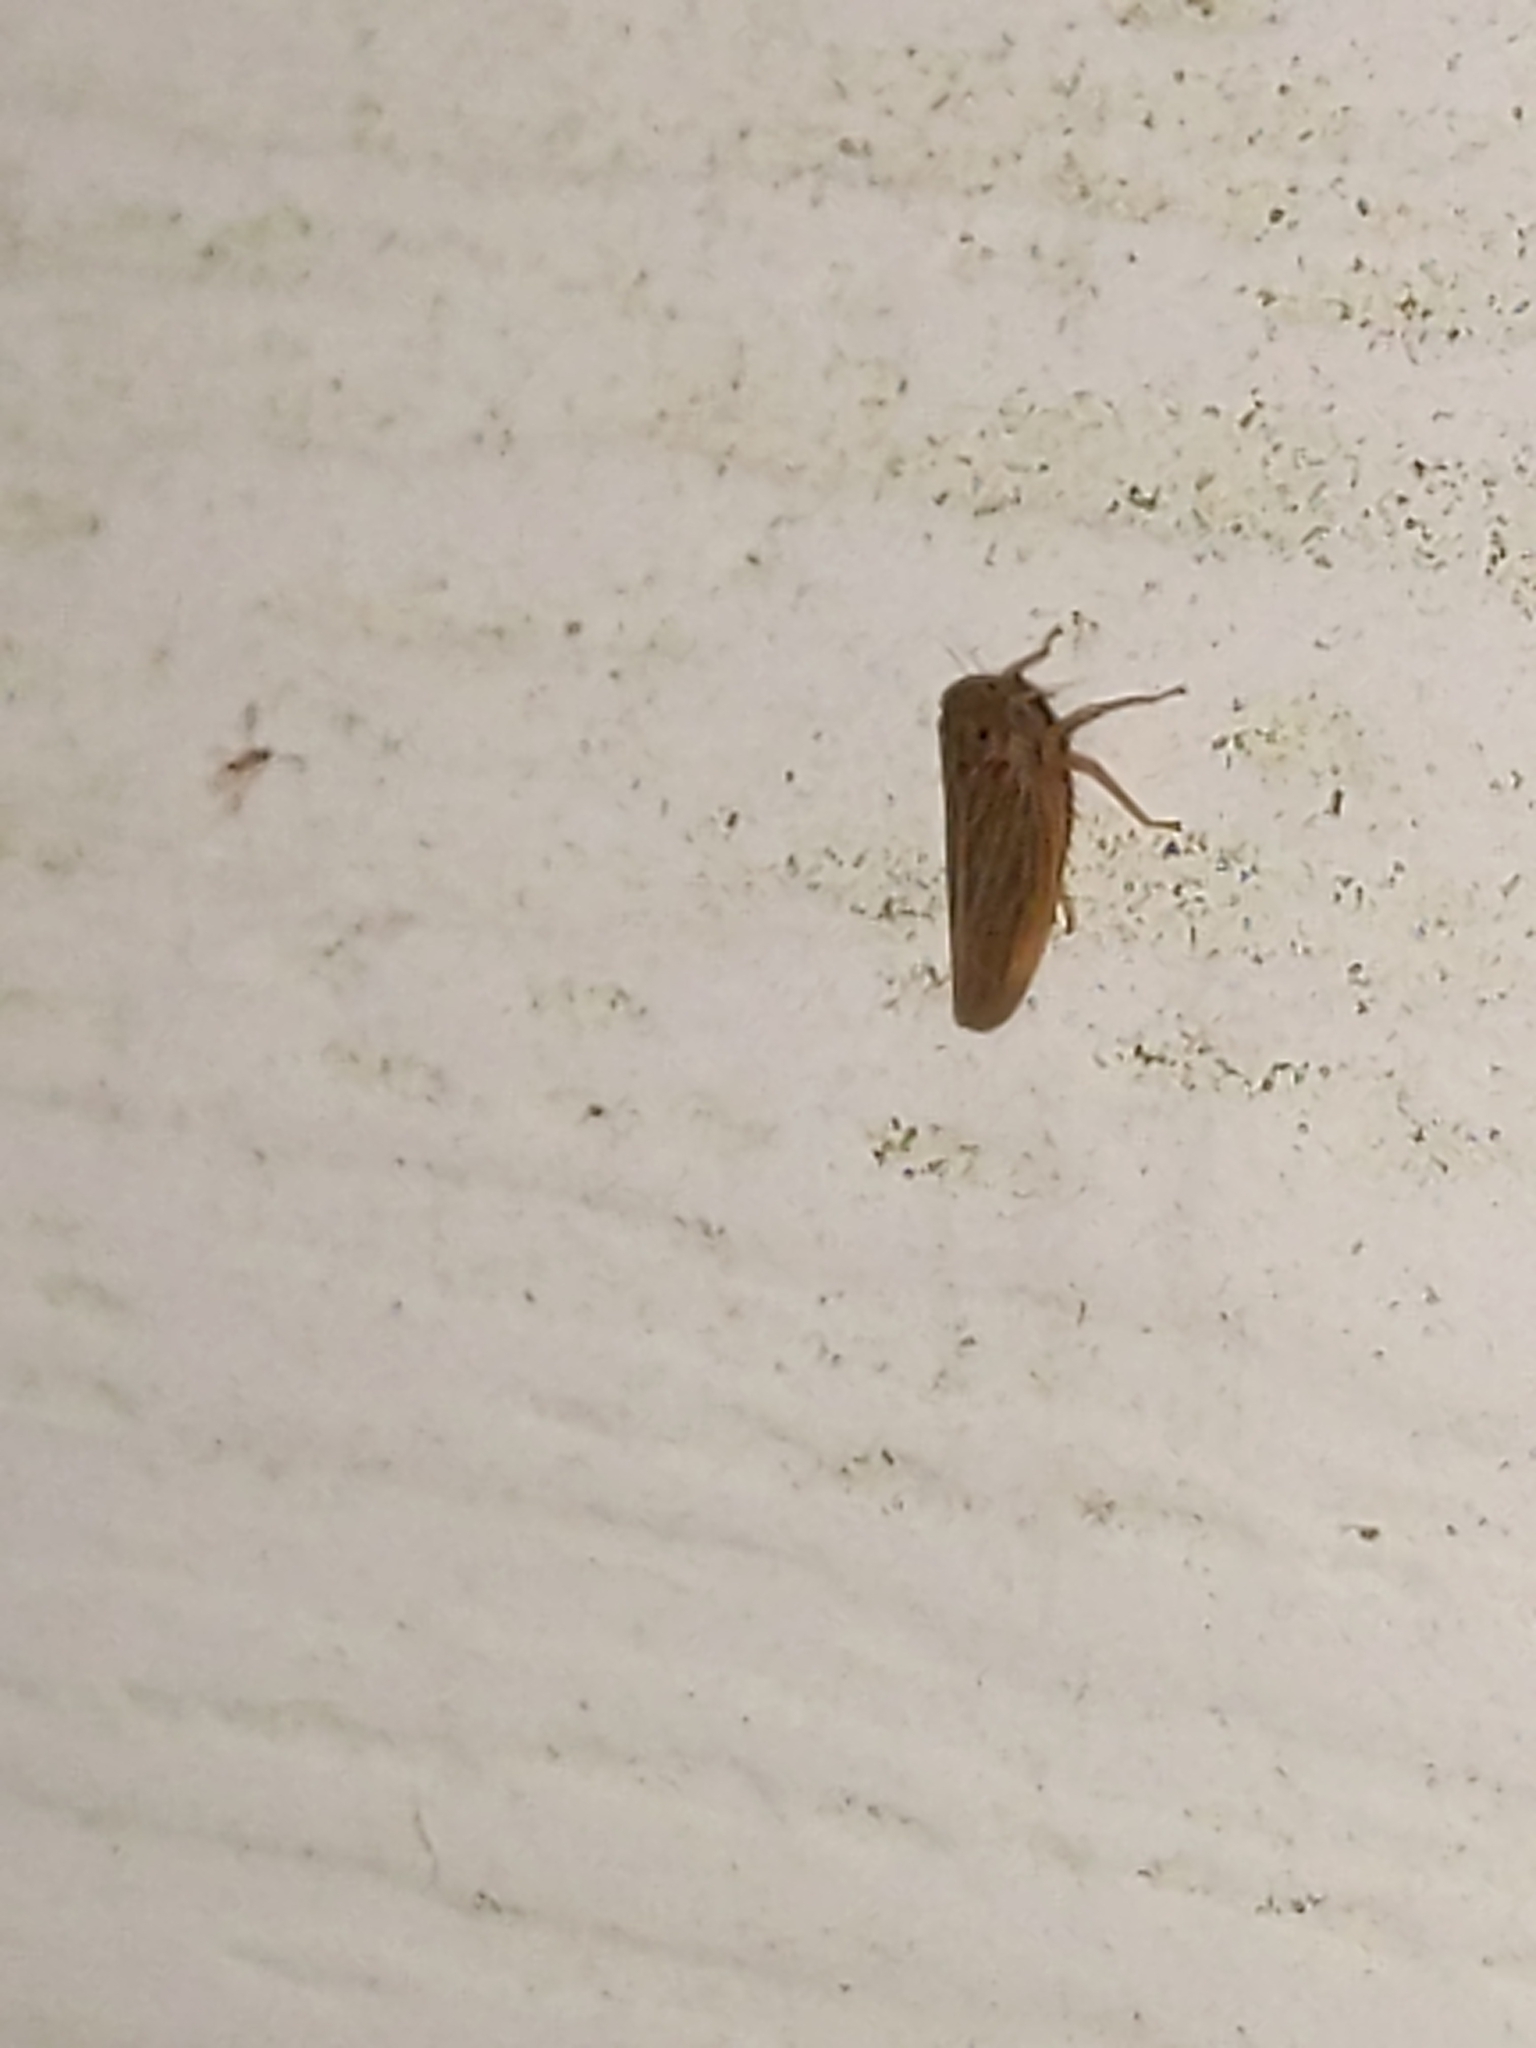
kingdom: Animalia
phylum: Arthropoda
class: Insecta
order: Hemiptera
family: Cicadellidae
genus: Agallia
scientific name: Agallia
